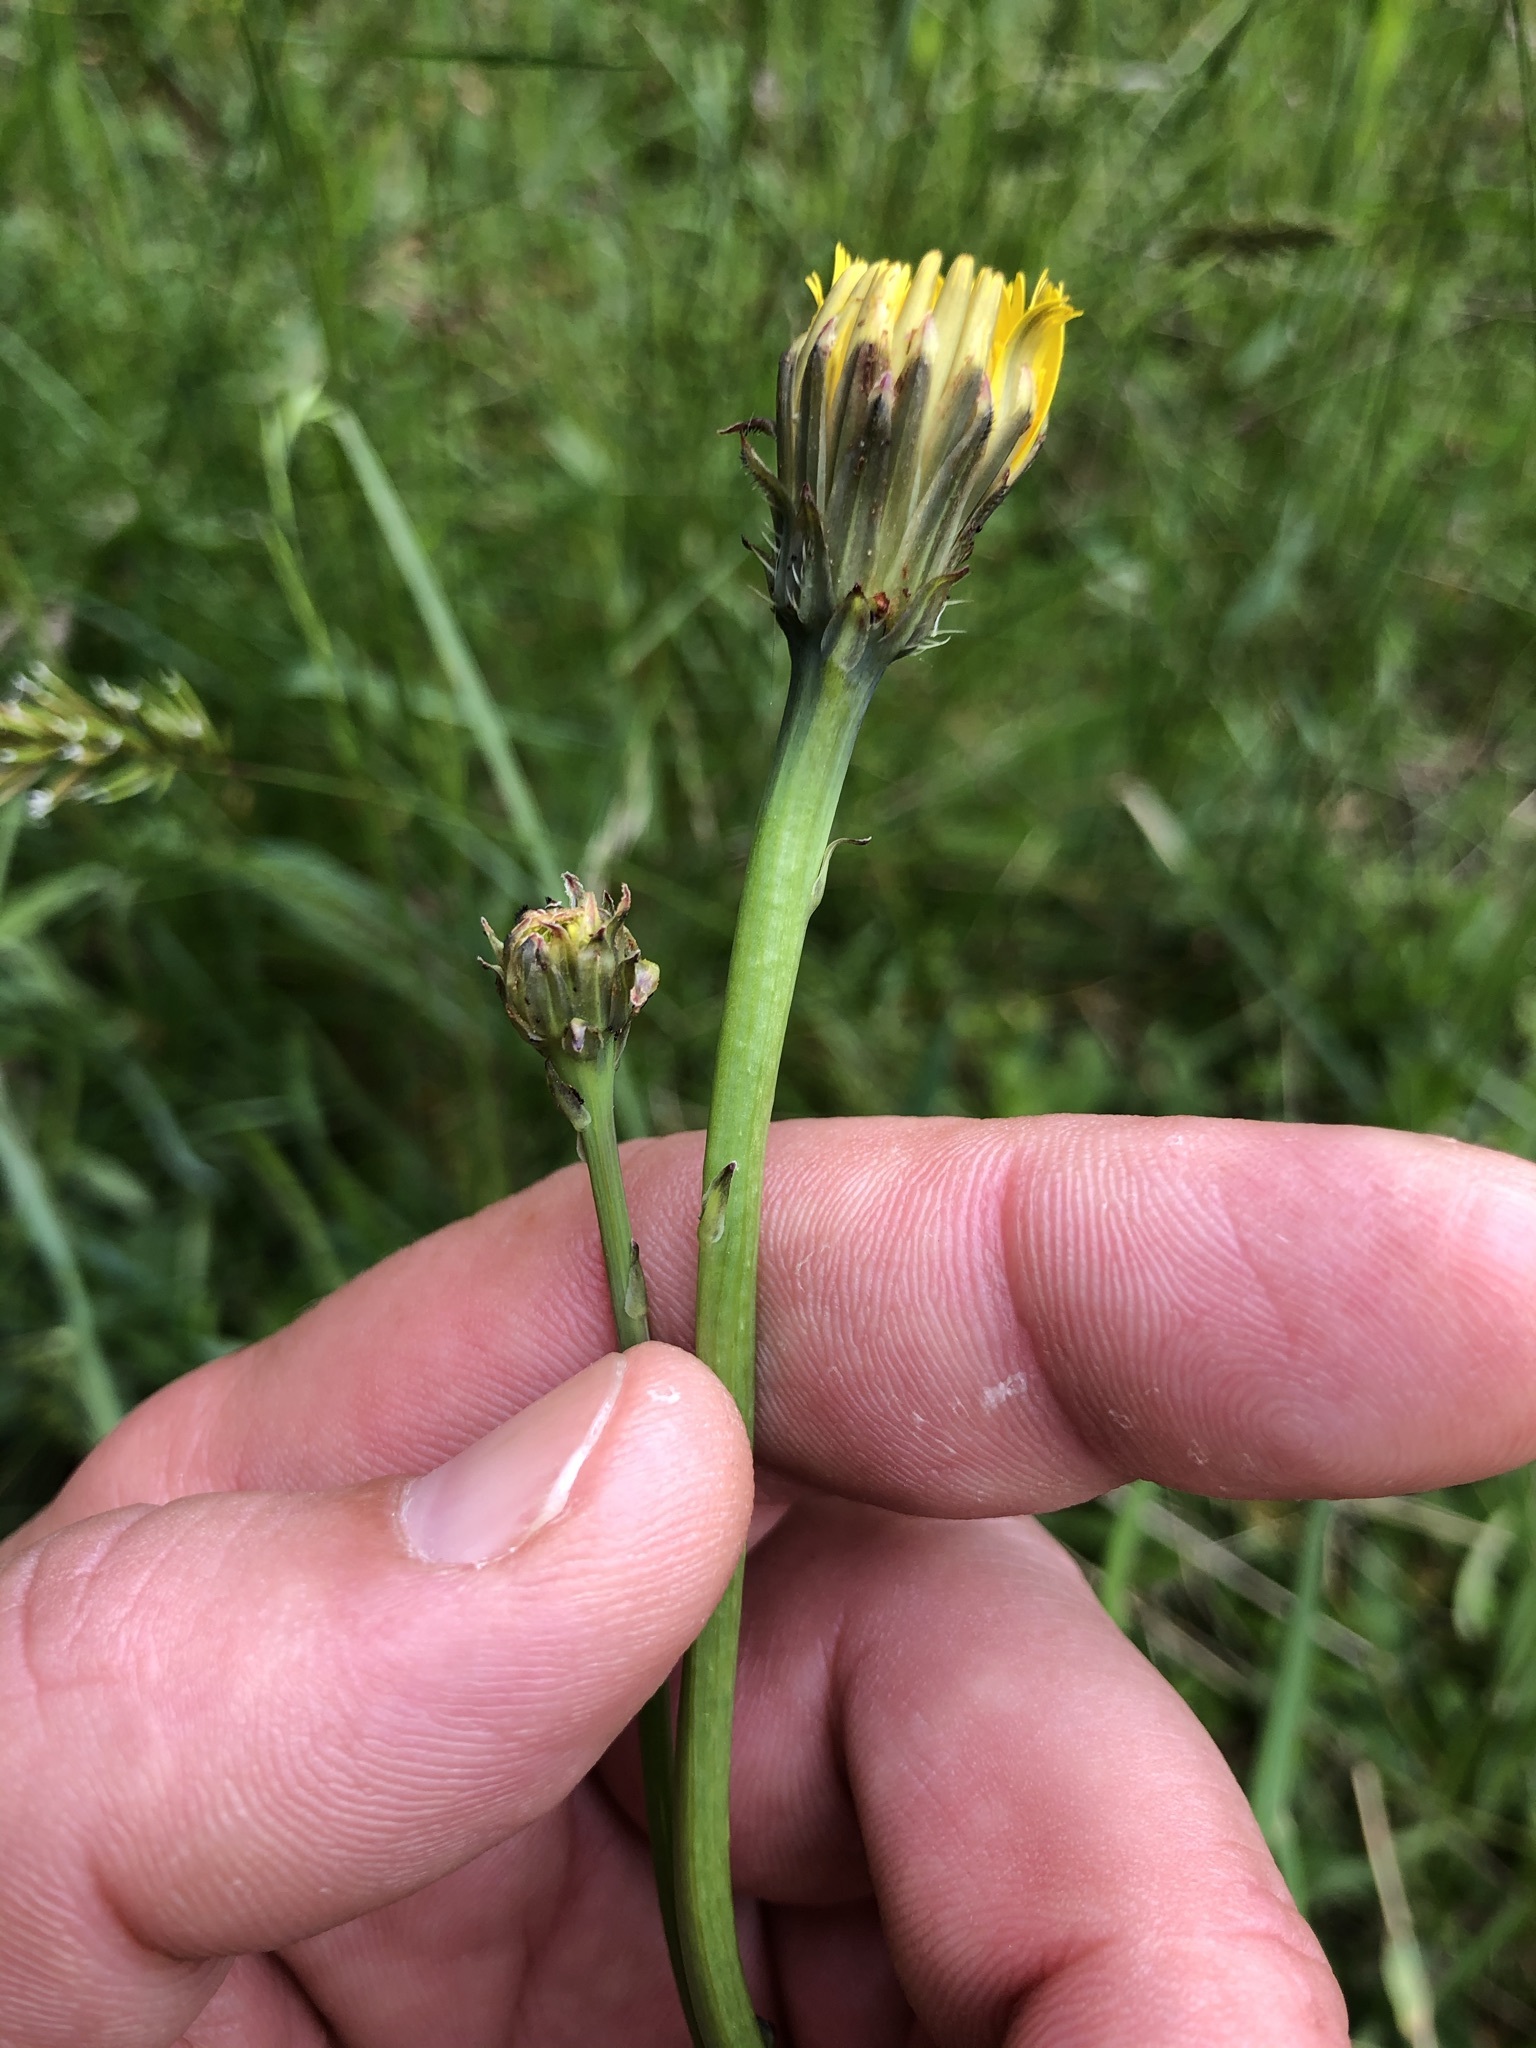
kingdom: Plantae
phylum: Tracheophyta
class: Magnoliopsida
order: Asterales
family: Asteraceae
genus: Hypochaeris
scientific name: Hypochaeris radicata
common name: Flatweed
